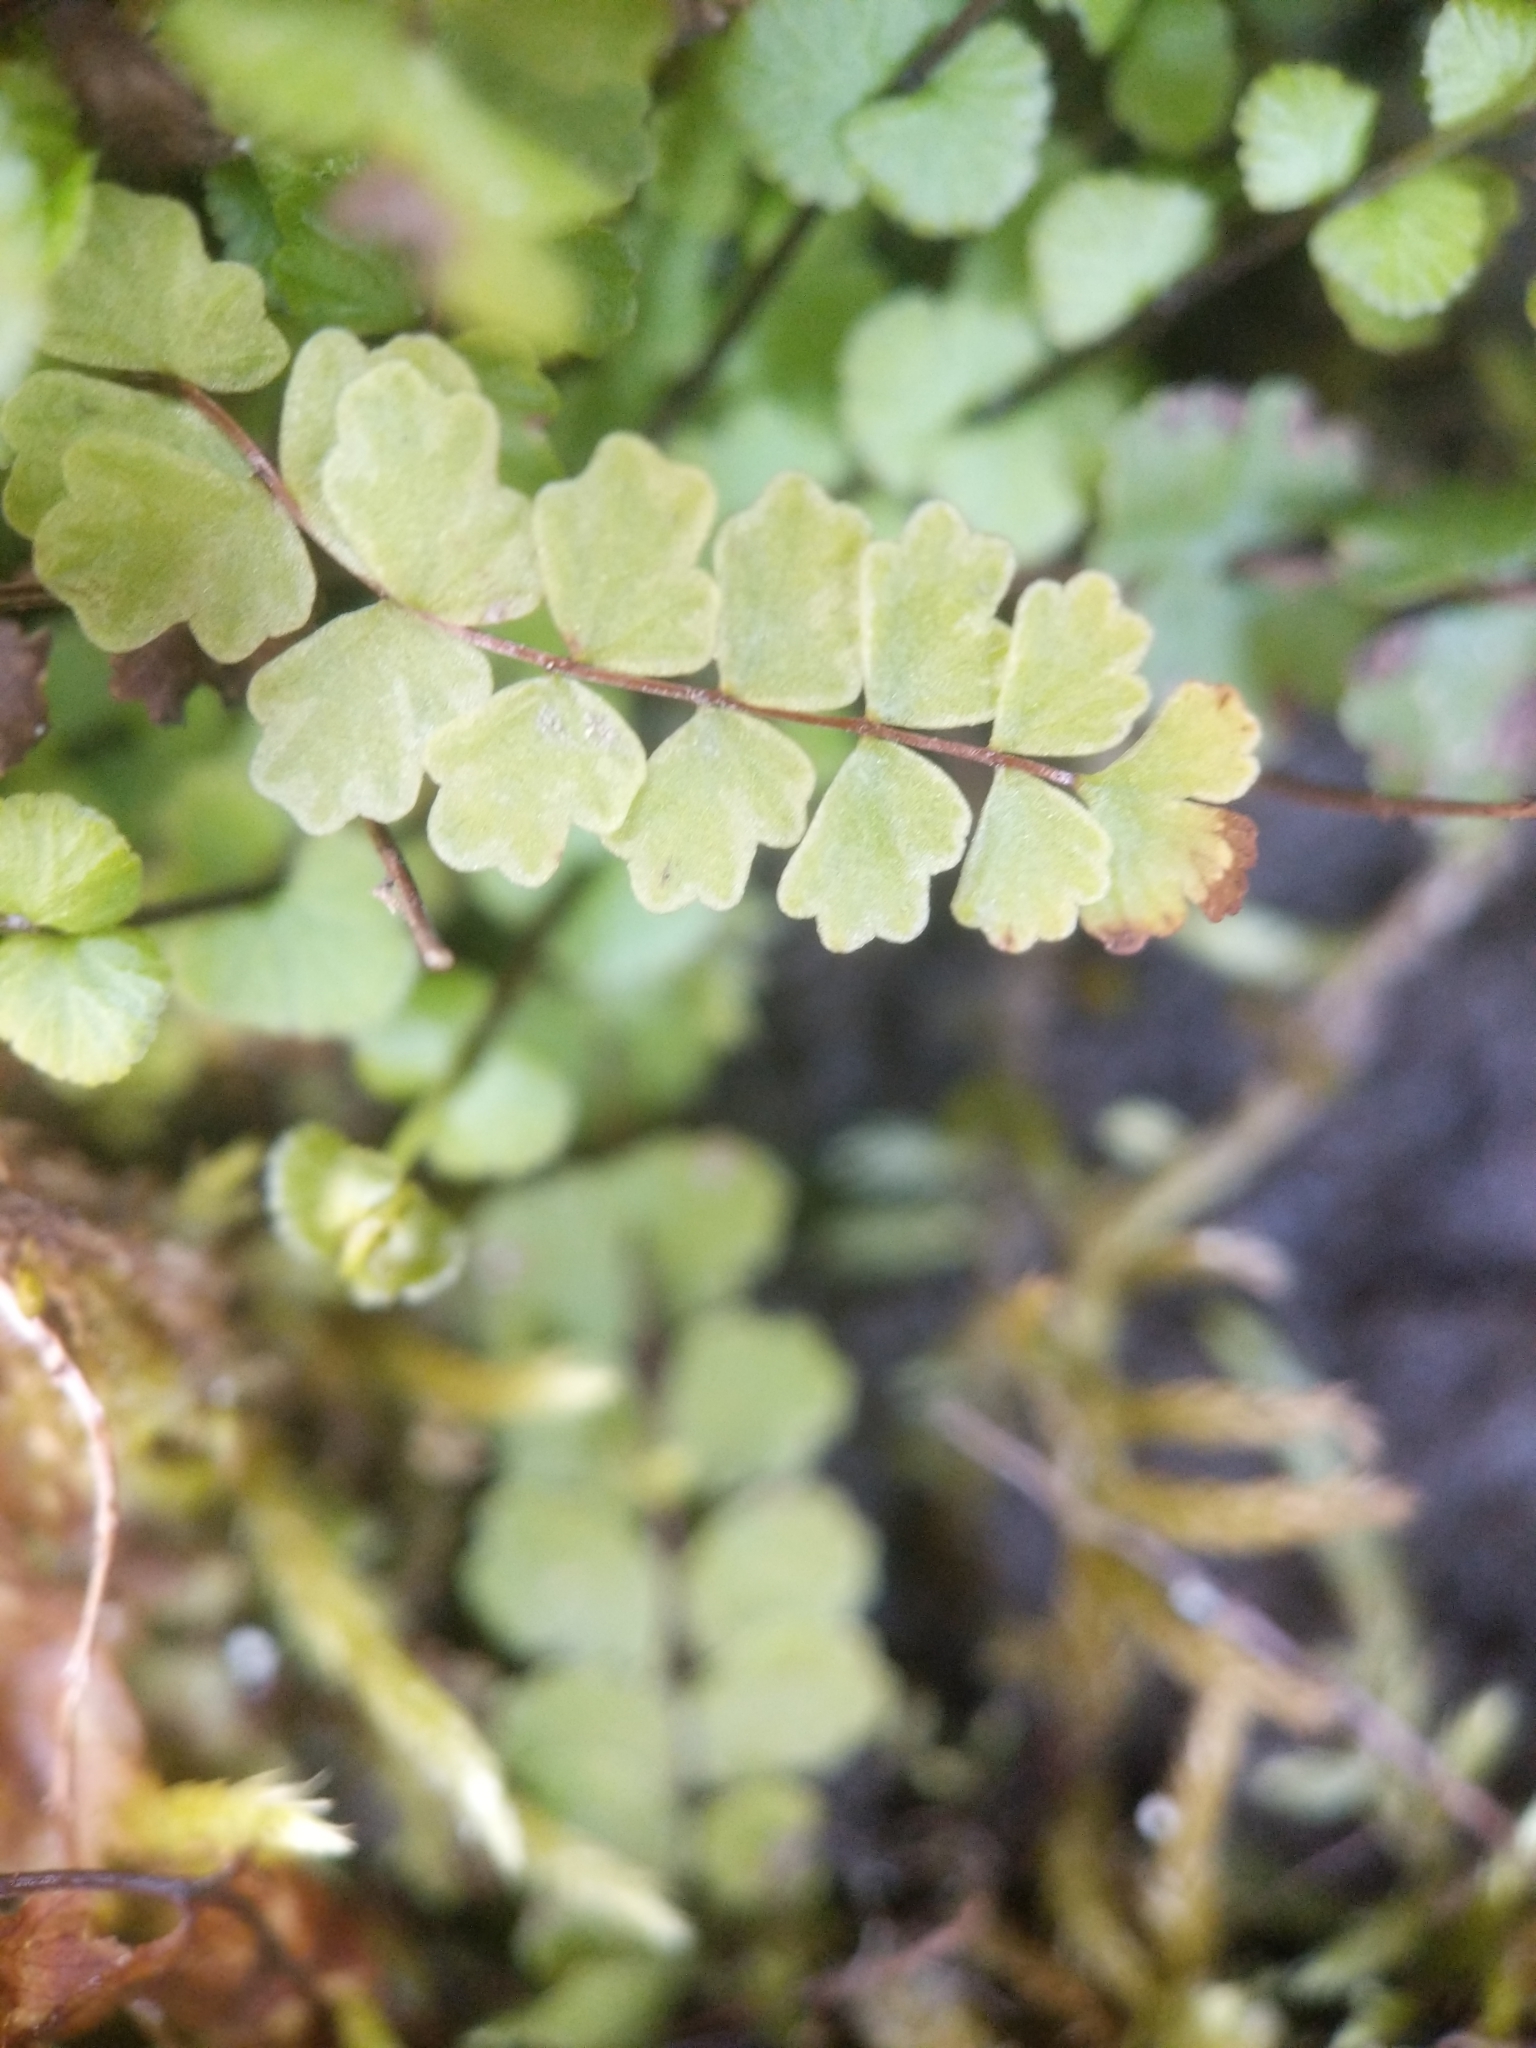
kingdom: Plantae
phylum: Tracheophyta
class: Polypodiopsida
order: Polypodiales
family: Aspleniaceae
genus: Asplenium
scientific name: Asplenium trichomanes
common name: Maidenhair spleenwort
